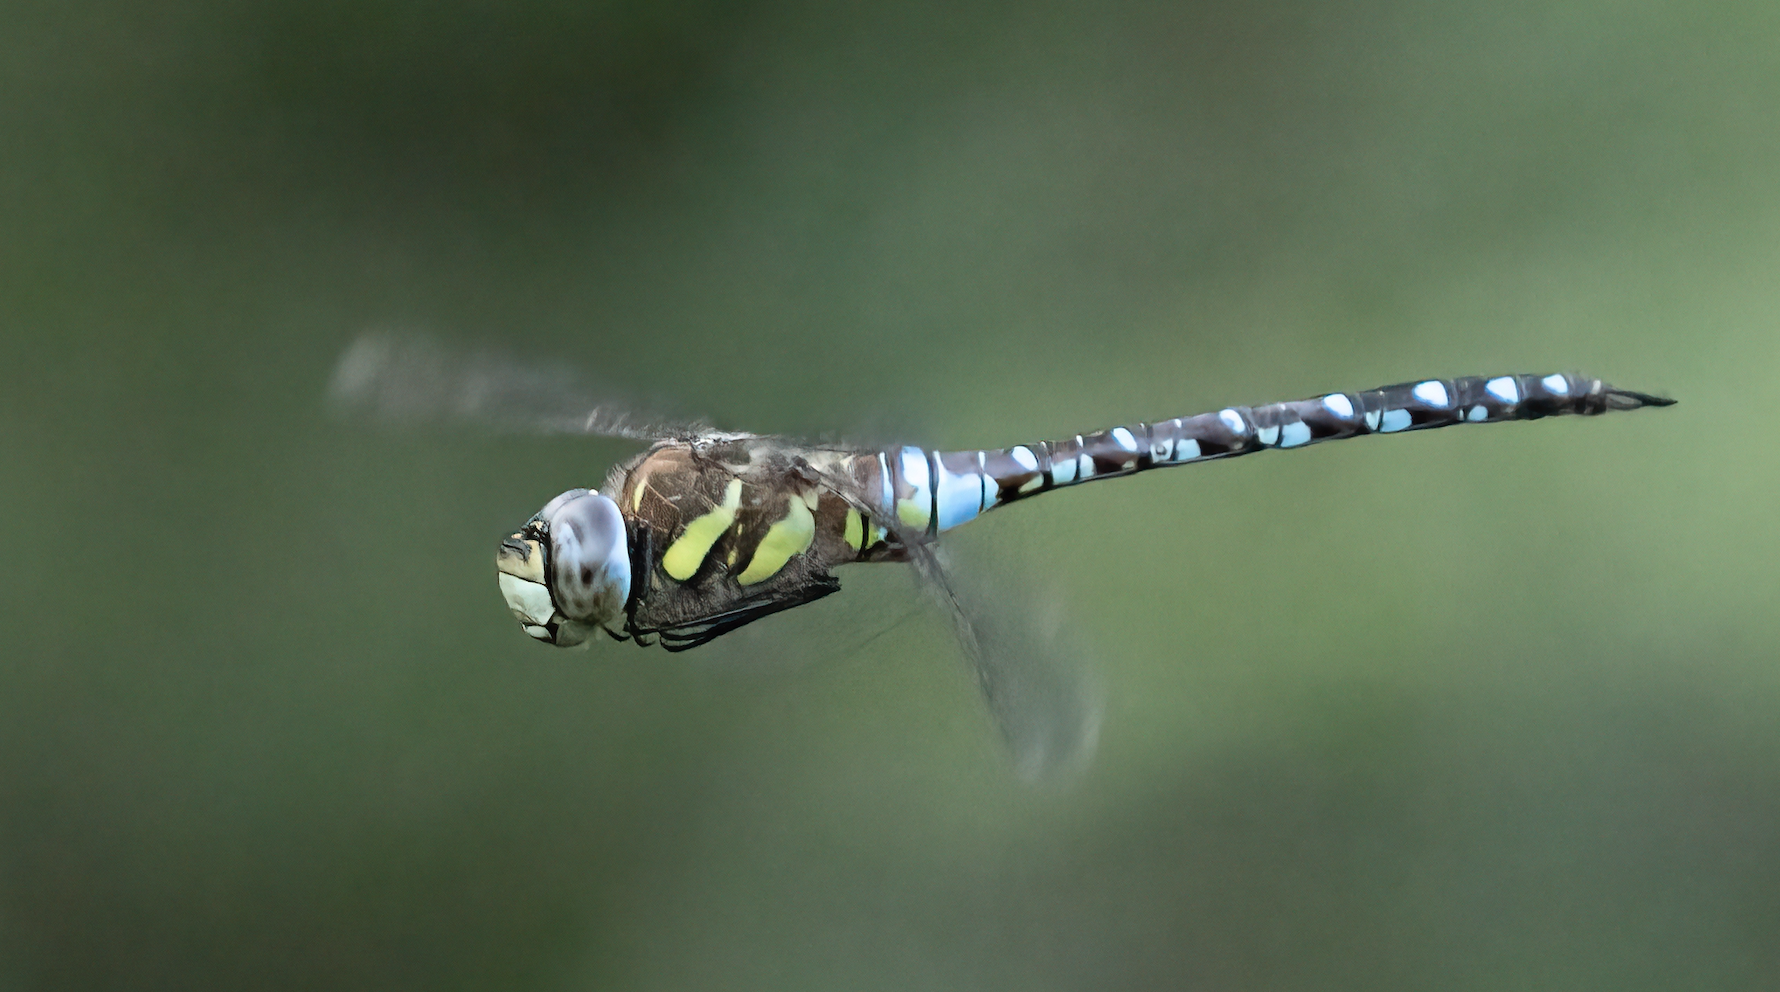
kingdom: Animalia
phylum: Arthropoda
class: Insecta
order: Odonata
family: Aeshnidae
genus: Aeshna
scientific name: Aeshna mixta
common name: Migrant hawker
